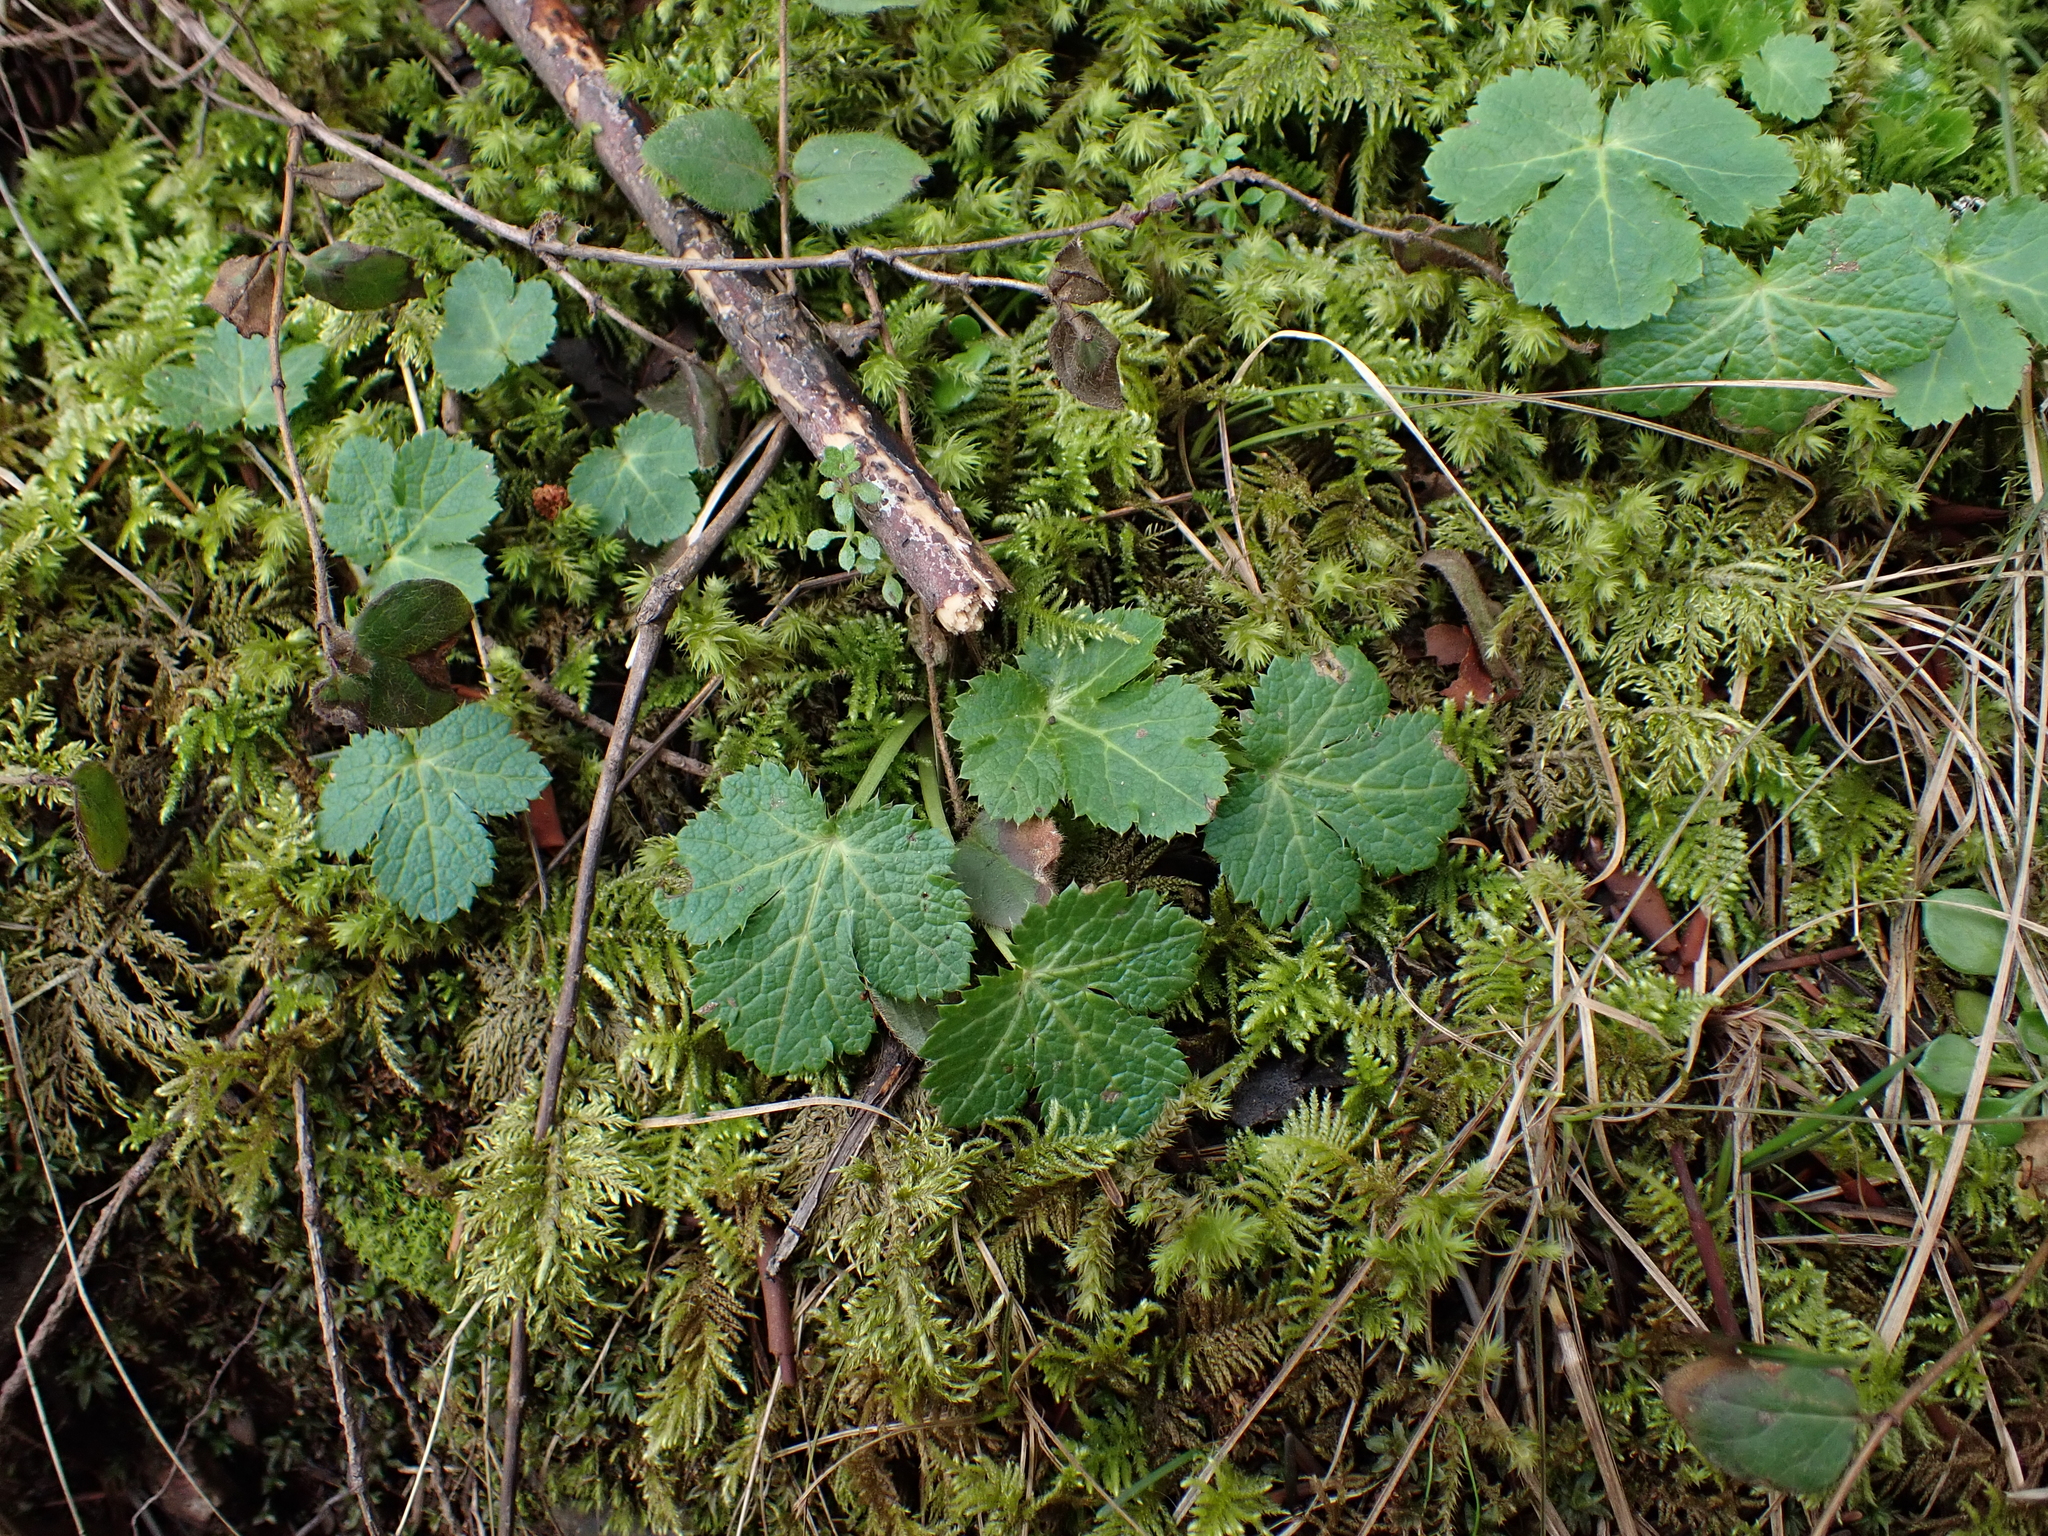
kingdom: Plantae
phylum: Tracheophyta
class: Magnoliopsida
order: Apiales
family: Apiaceae
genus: Sanicula
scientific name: Sanicula crassicaulis
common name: Western snakeroot
